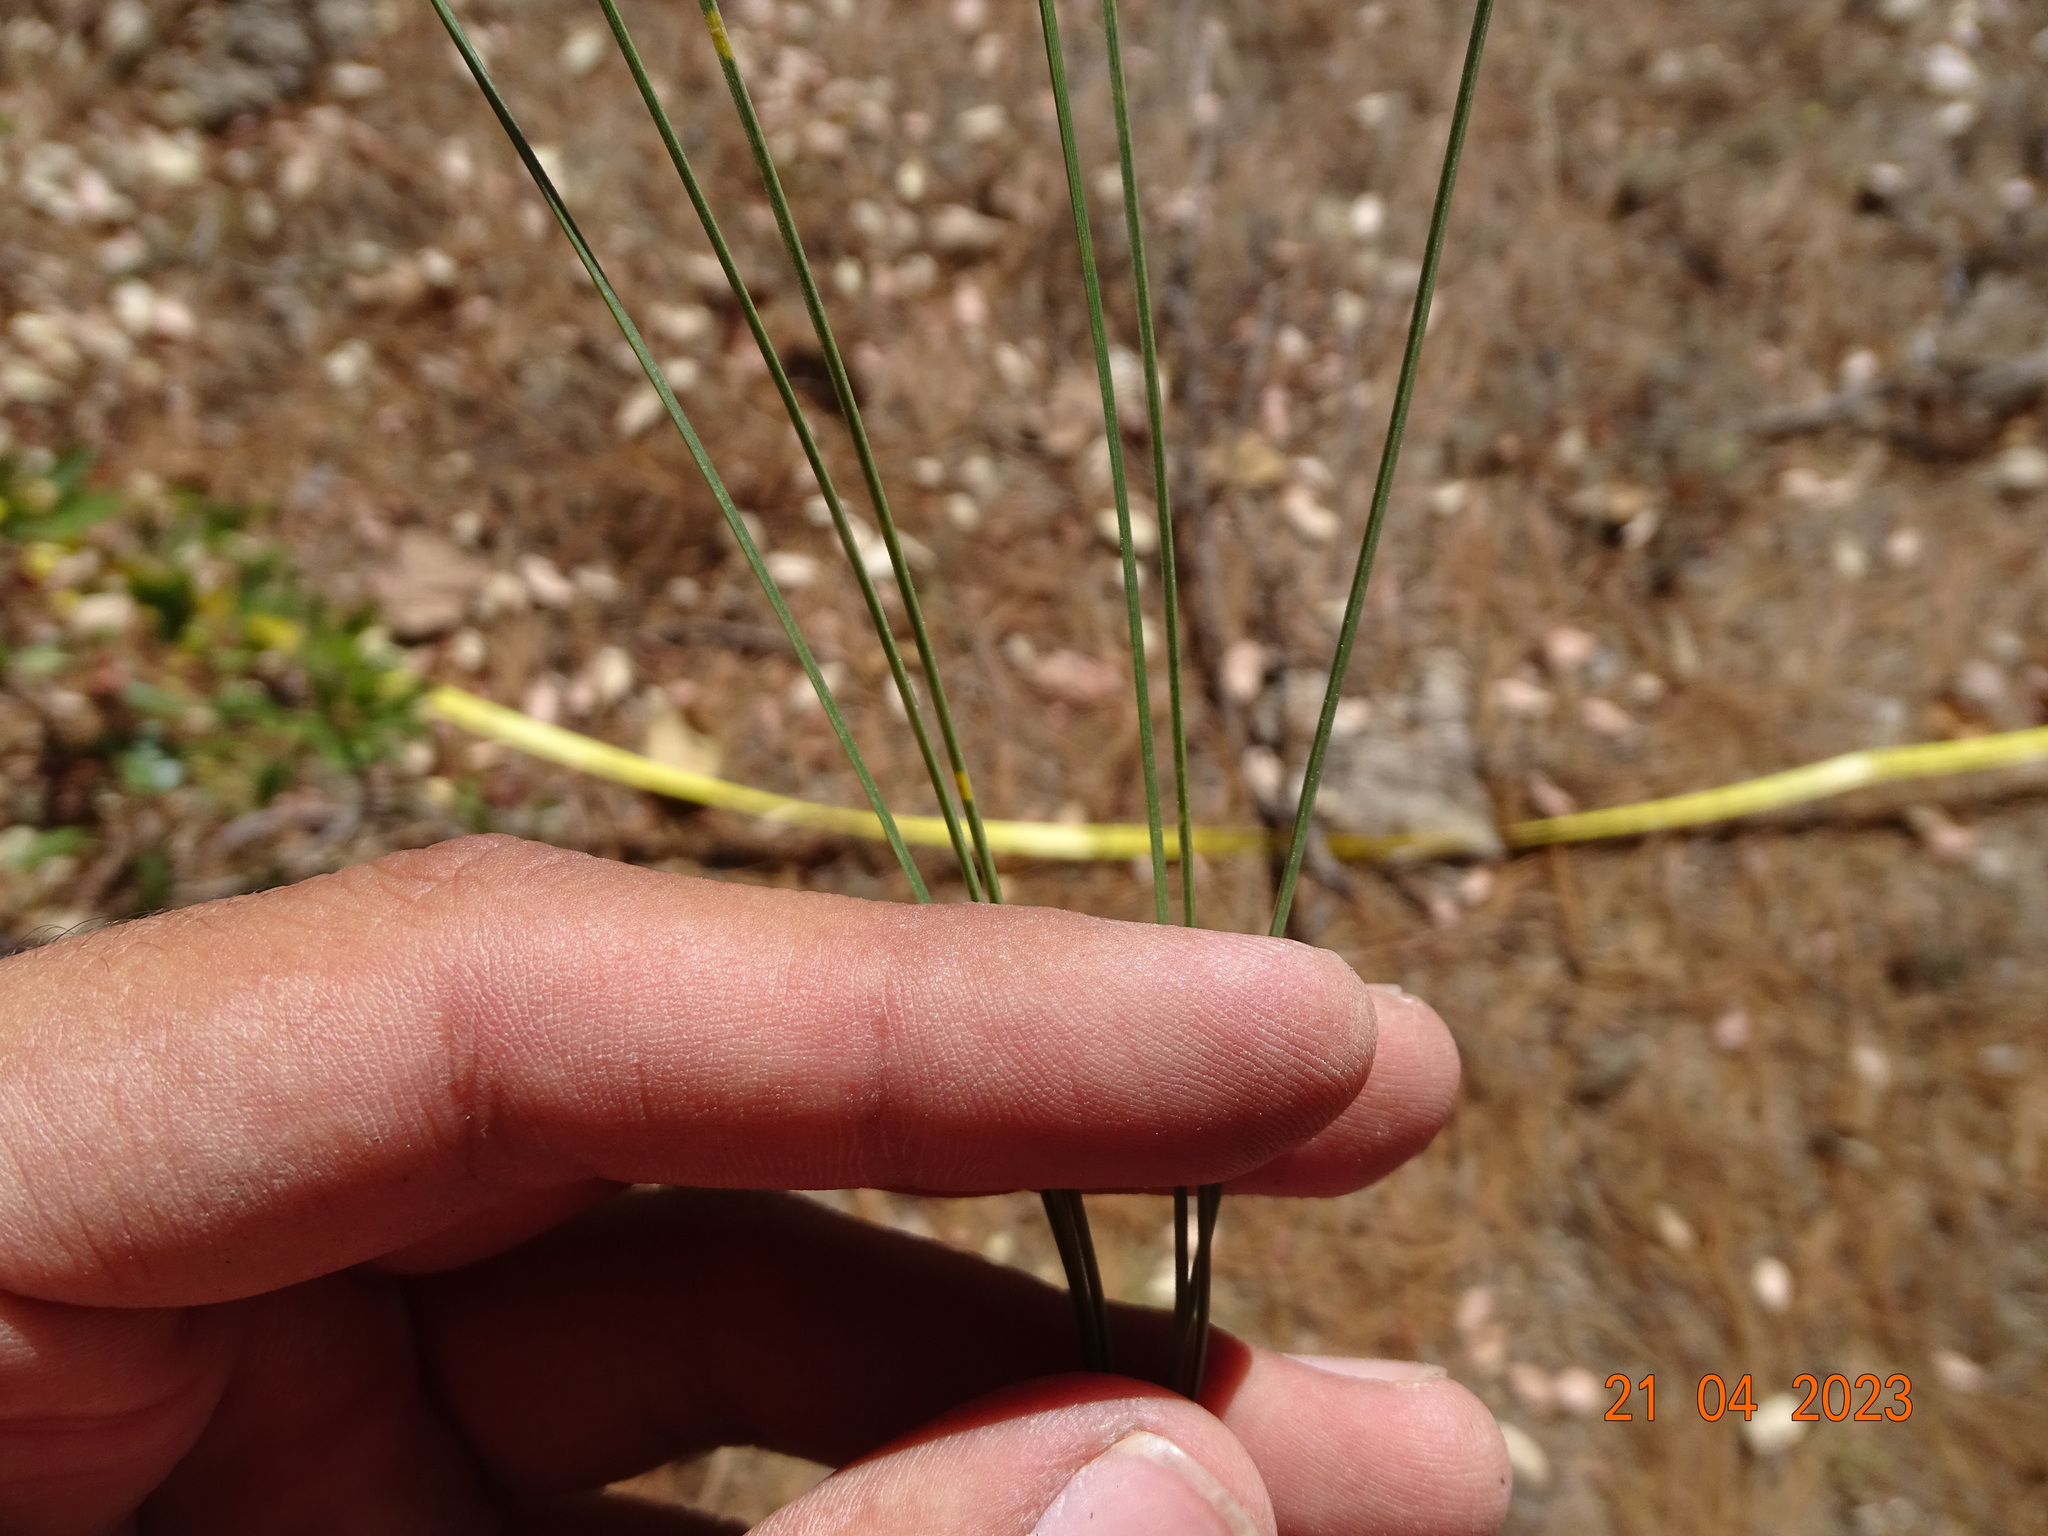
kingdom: Plantae
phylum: Tracheophyta
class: Pinopsida
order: Pinales
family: Pinaceae
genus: Pinus
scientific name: Pinus durangensis
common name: Durango pine
